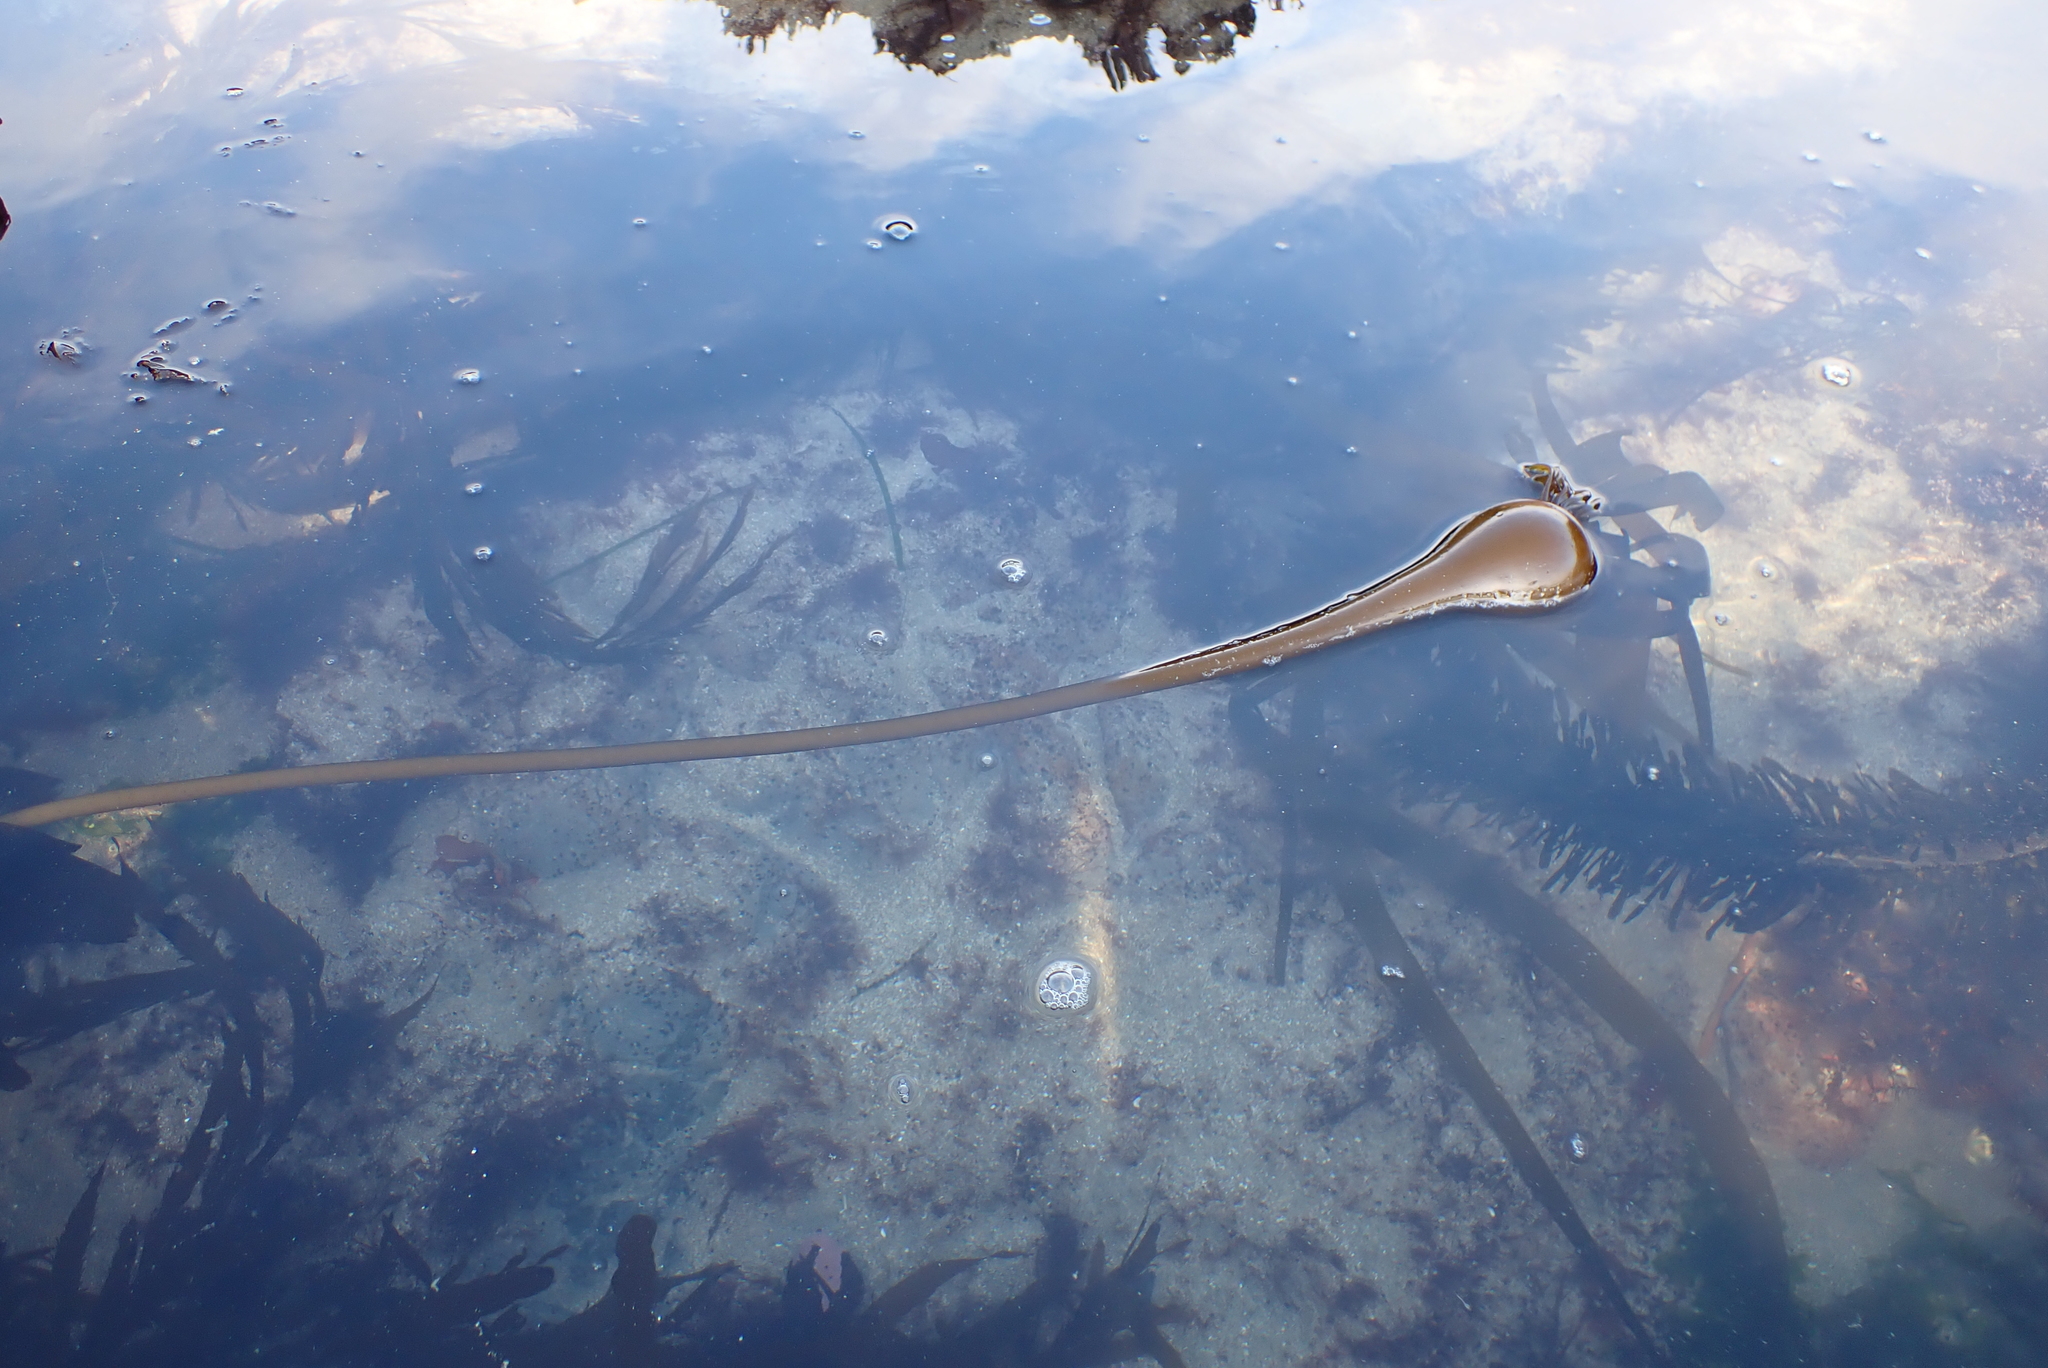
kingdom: Chromista
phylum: Ochrophyta
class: Phaeophyceae
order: Laminariales
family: Laminariaceae
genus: Nereocystis
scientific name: Nereocystis luetkeana
